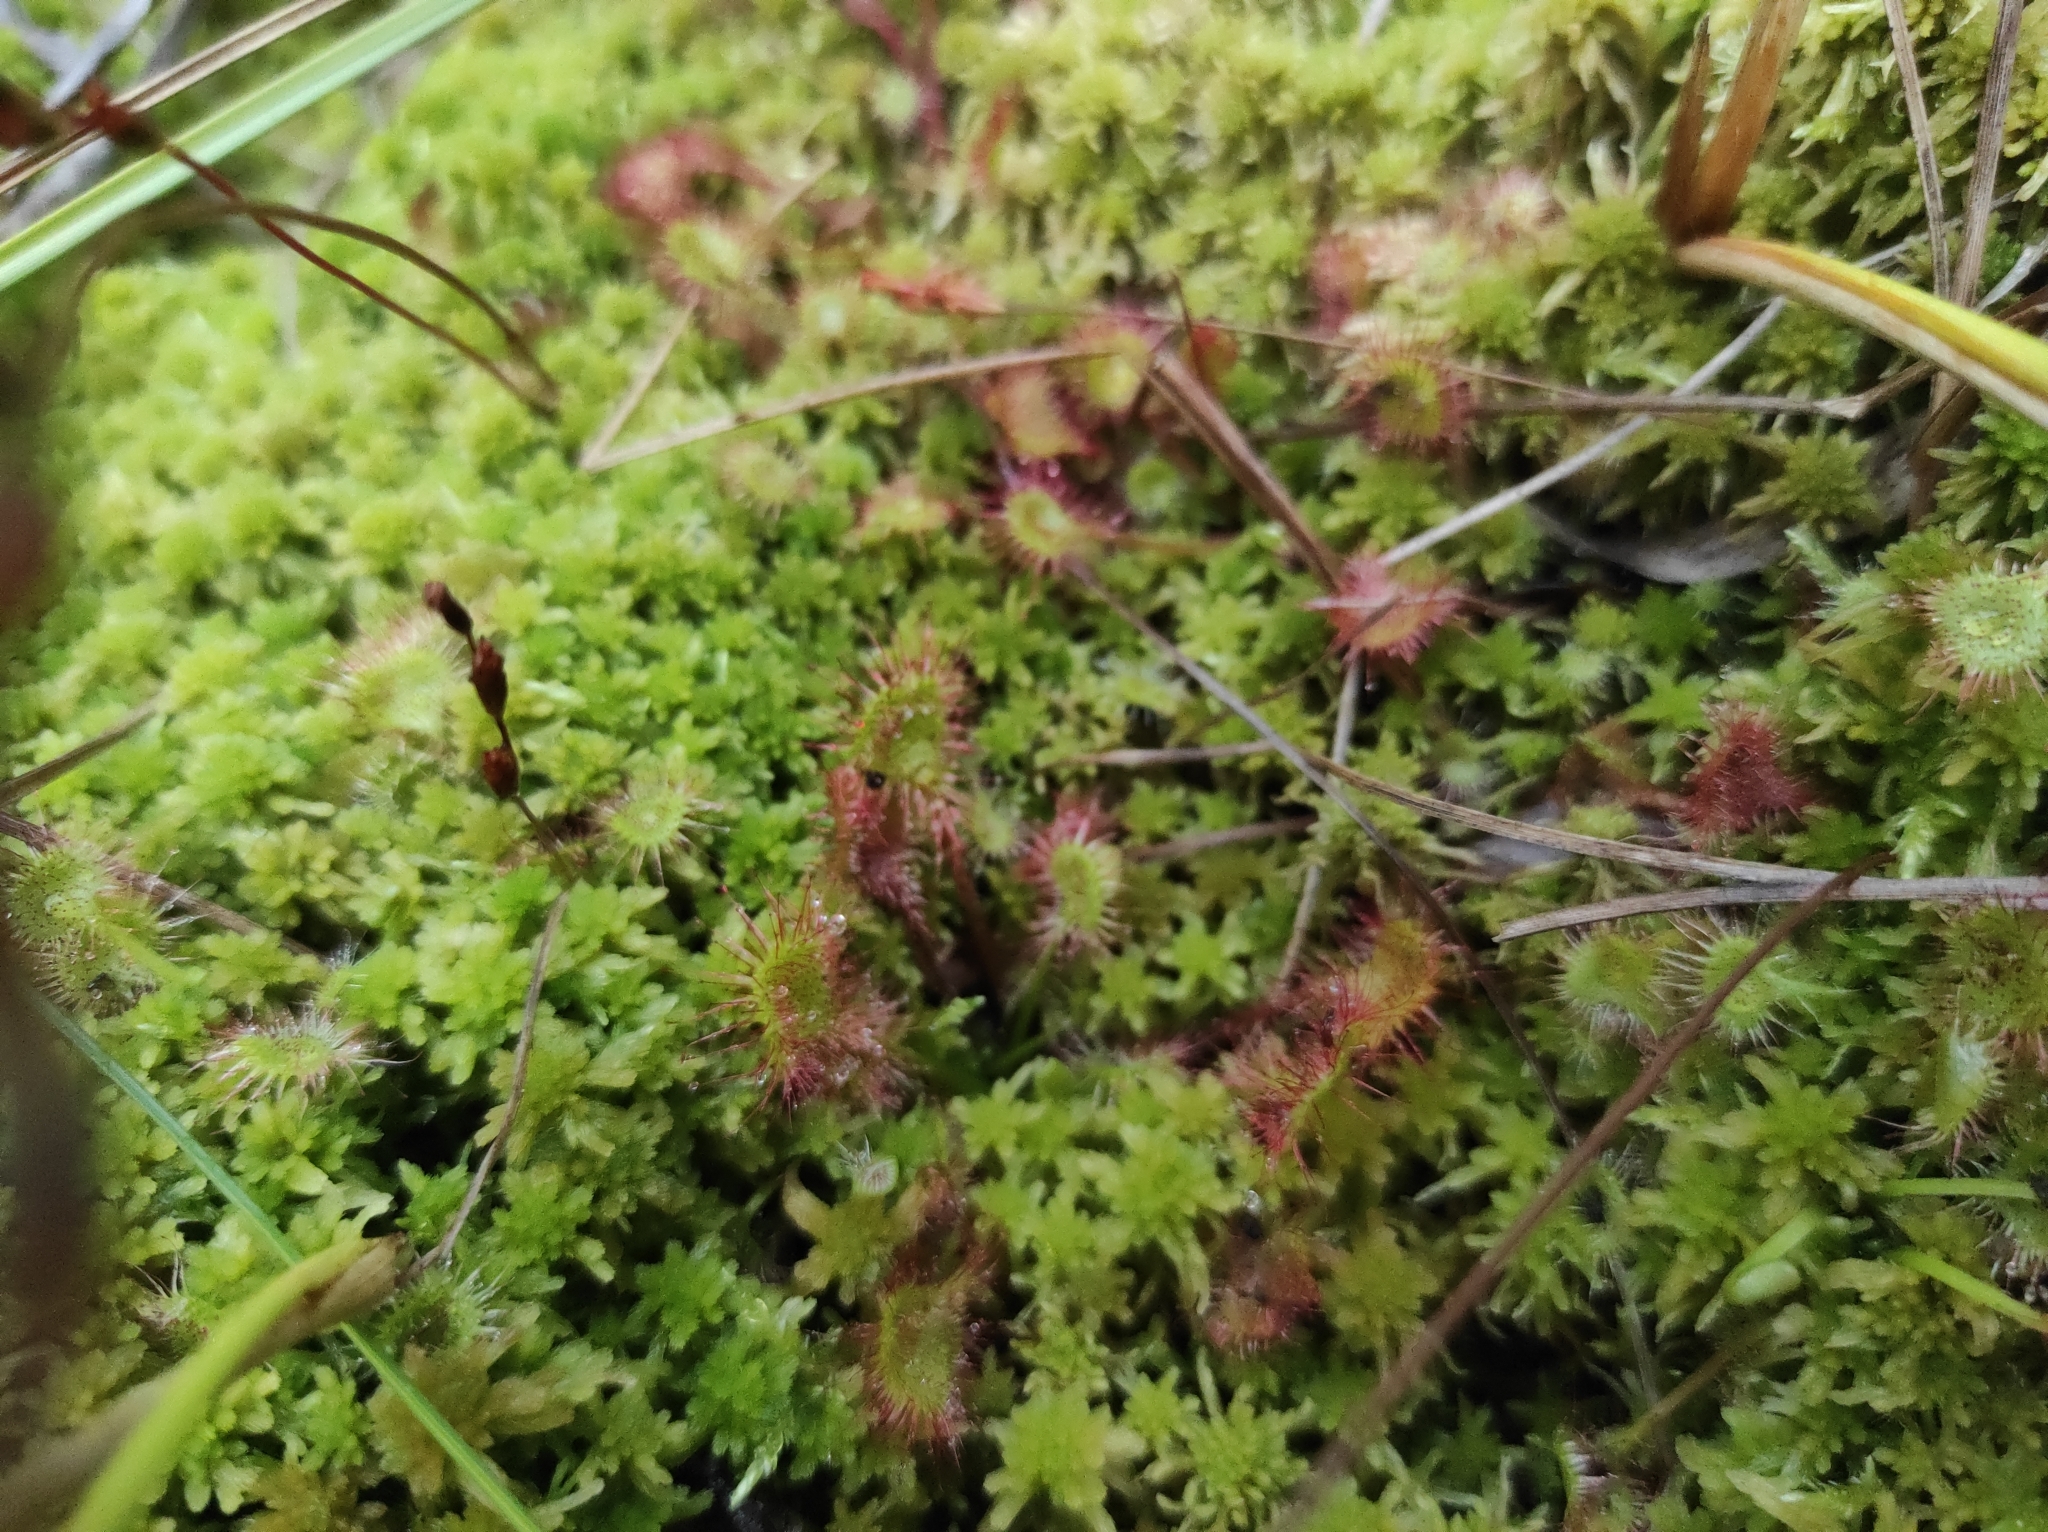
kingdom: Plantae
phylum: Tracheophyta
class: Magnoliopsida
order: Caryophyllales
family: Droseraceae
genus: Drosera
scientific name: Drosera rotundifolia
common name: Round-leaved sundew
